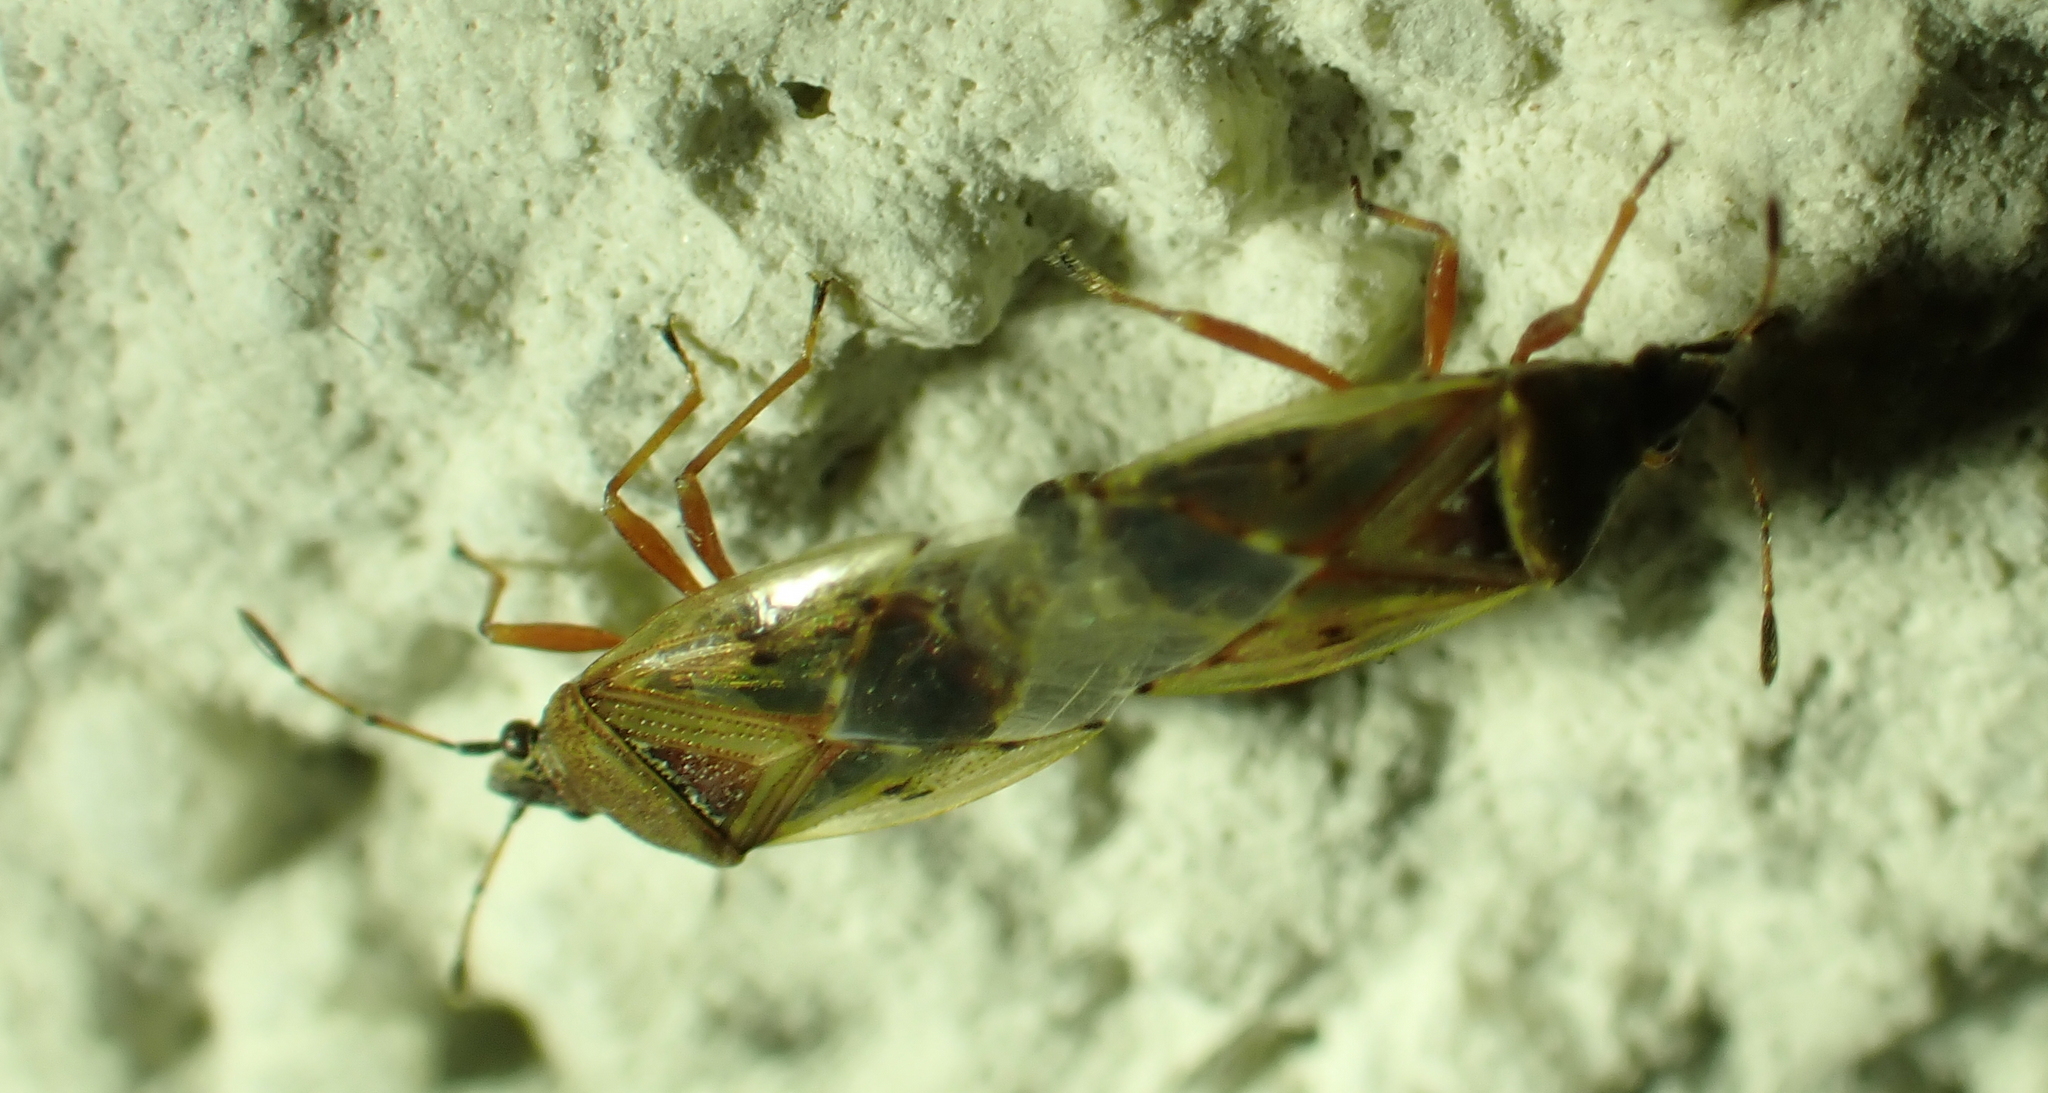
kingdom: Animalia
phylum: Arthropoda
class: Insecta
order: Hemiptera
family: Lygaeidae
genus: Kleidocerys
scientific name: Kleidocerys resedae
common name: Birch catkin bug
